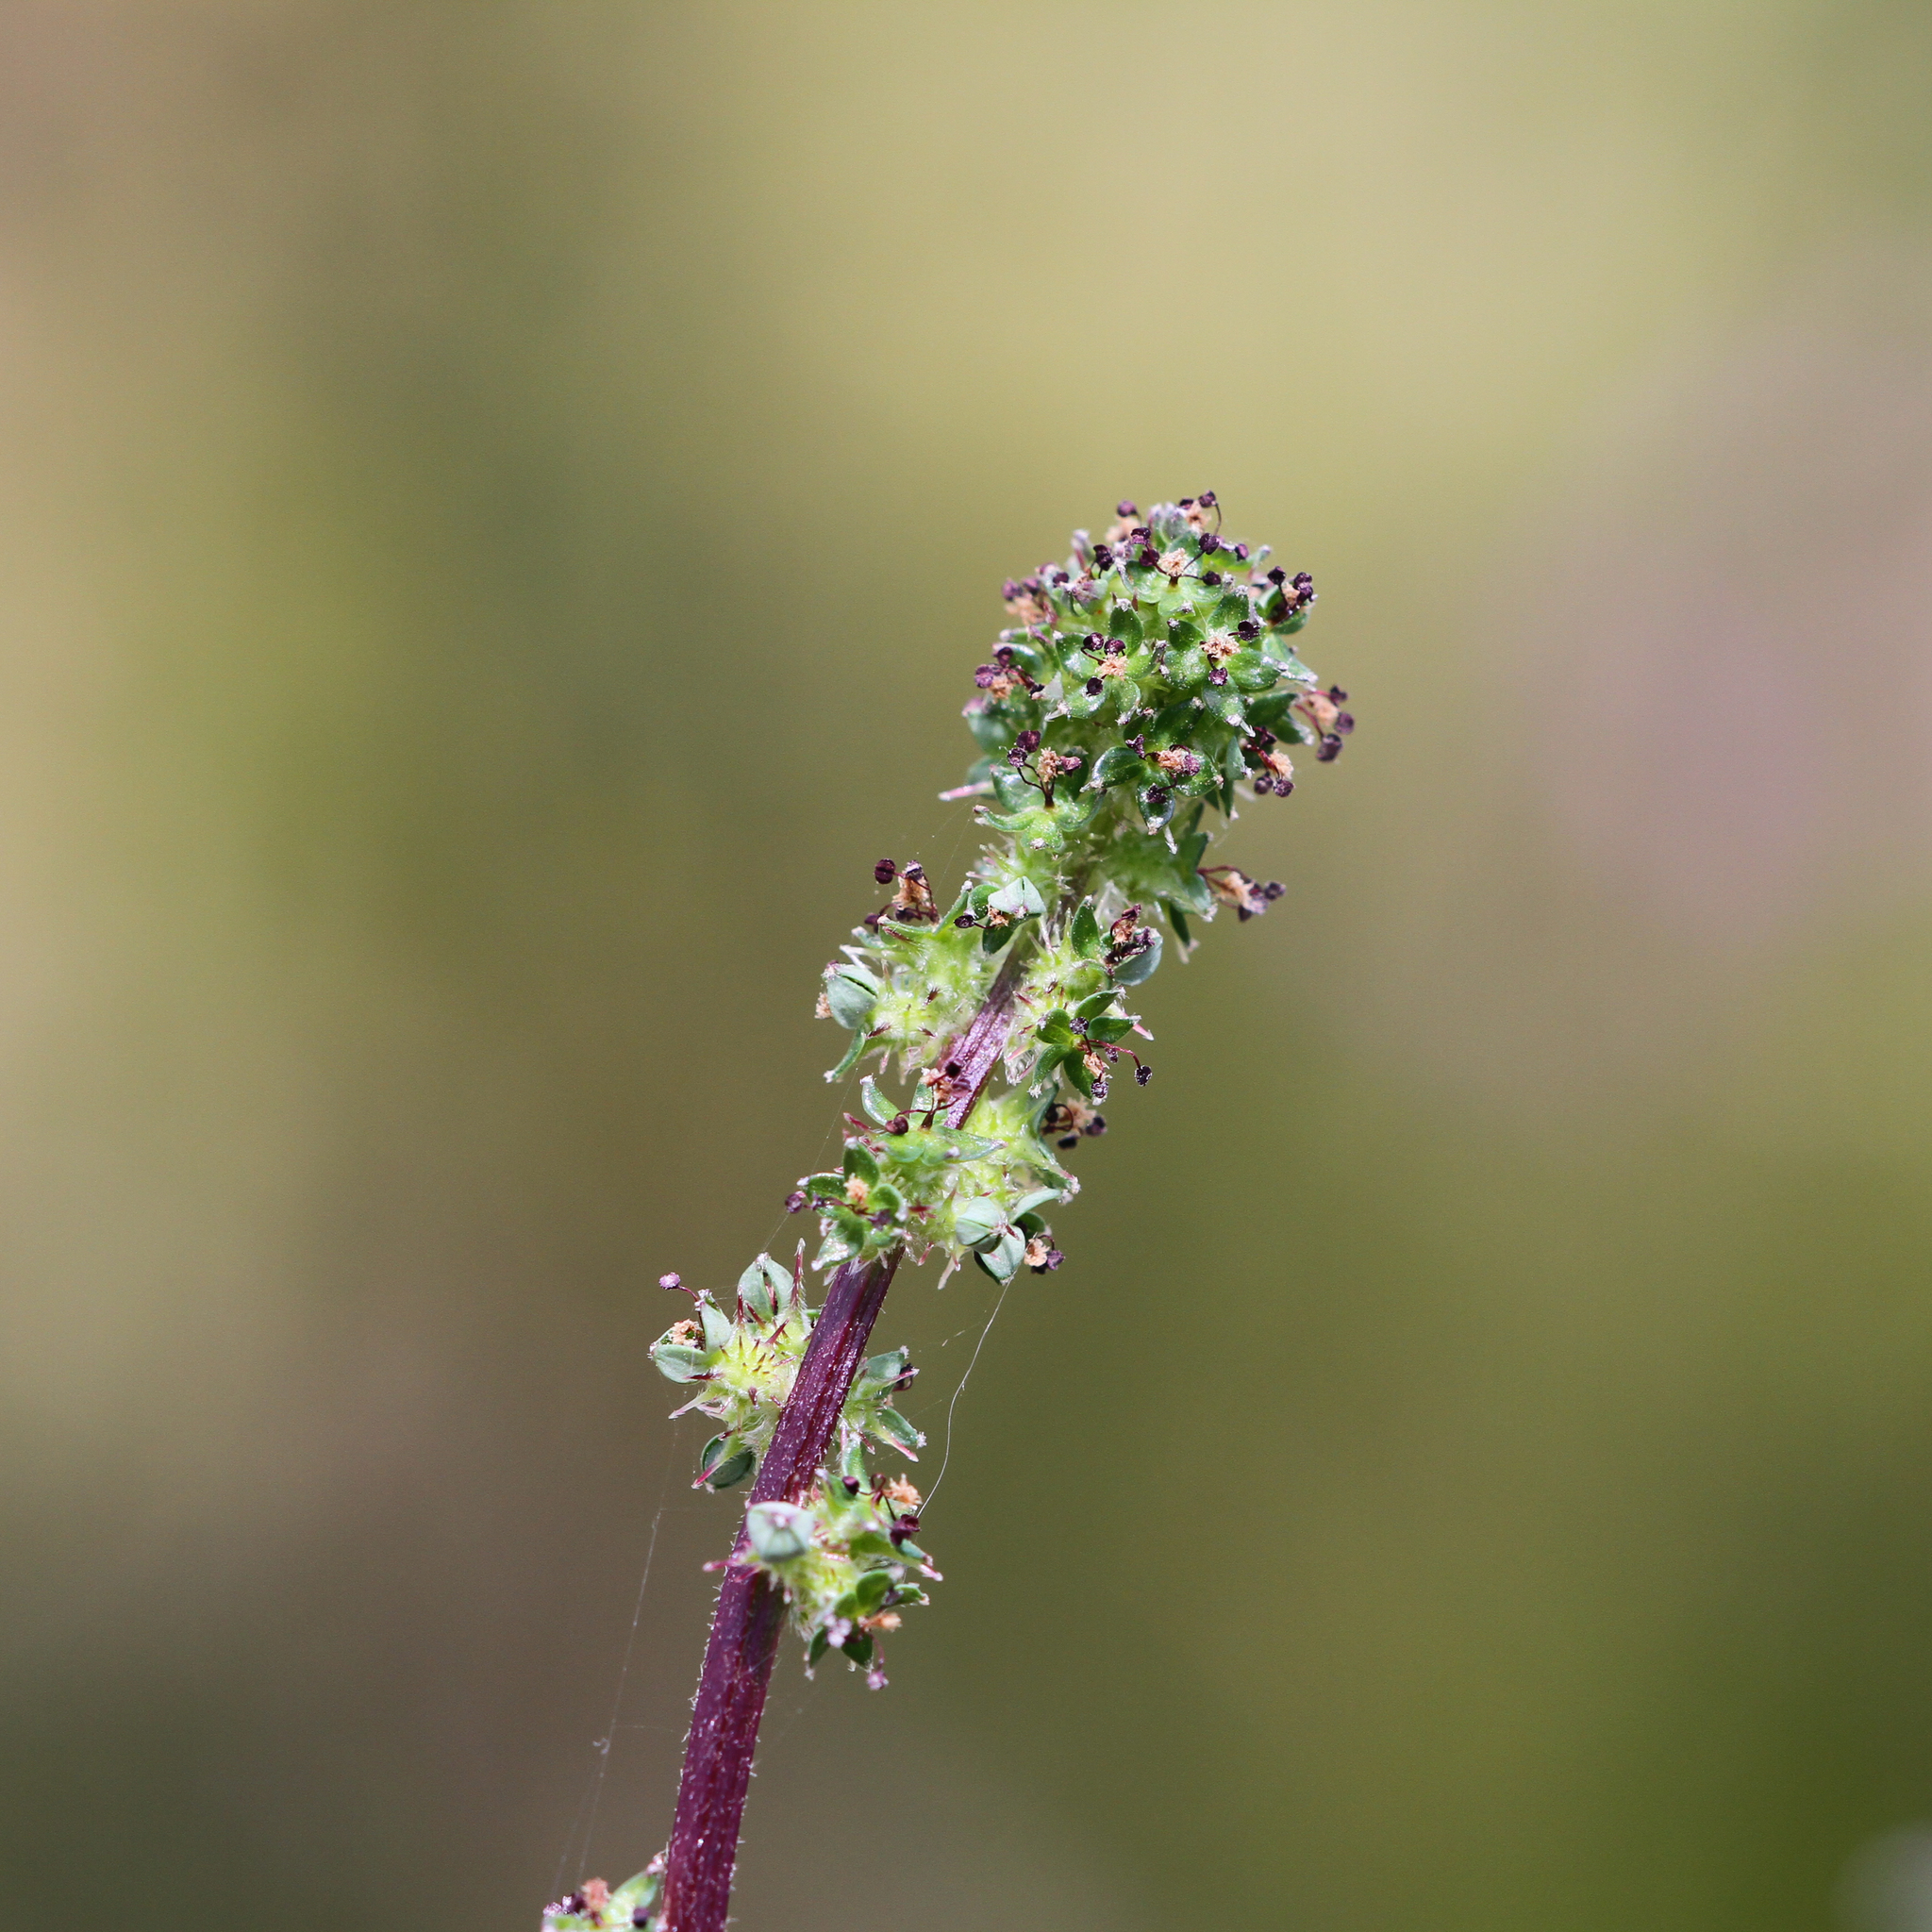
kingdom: Plantae
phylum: Tracheophyta
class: Magnoliopsida
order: Rosales
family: Rosaceae
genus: Acaena
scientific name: Acaena echinata
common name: Sheepbur
